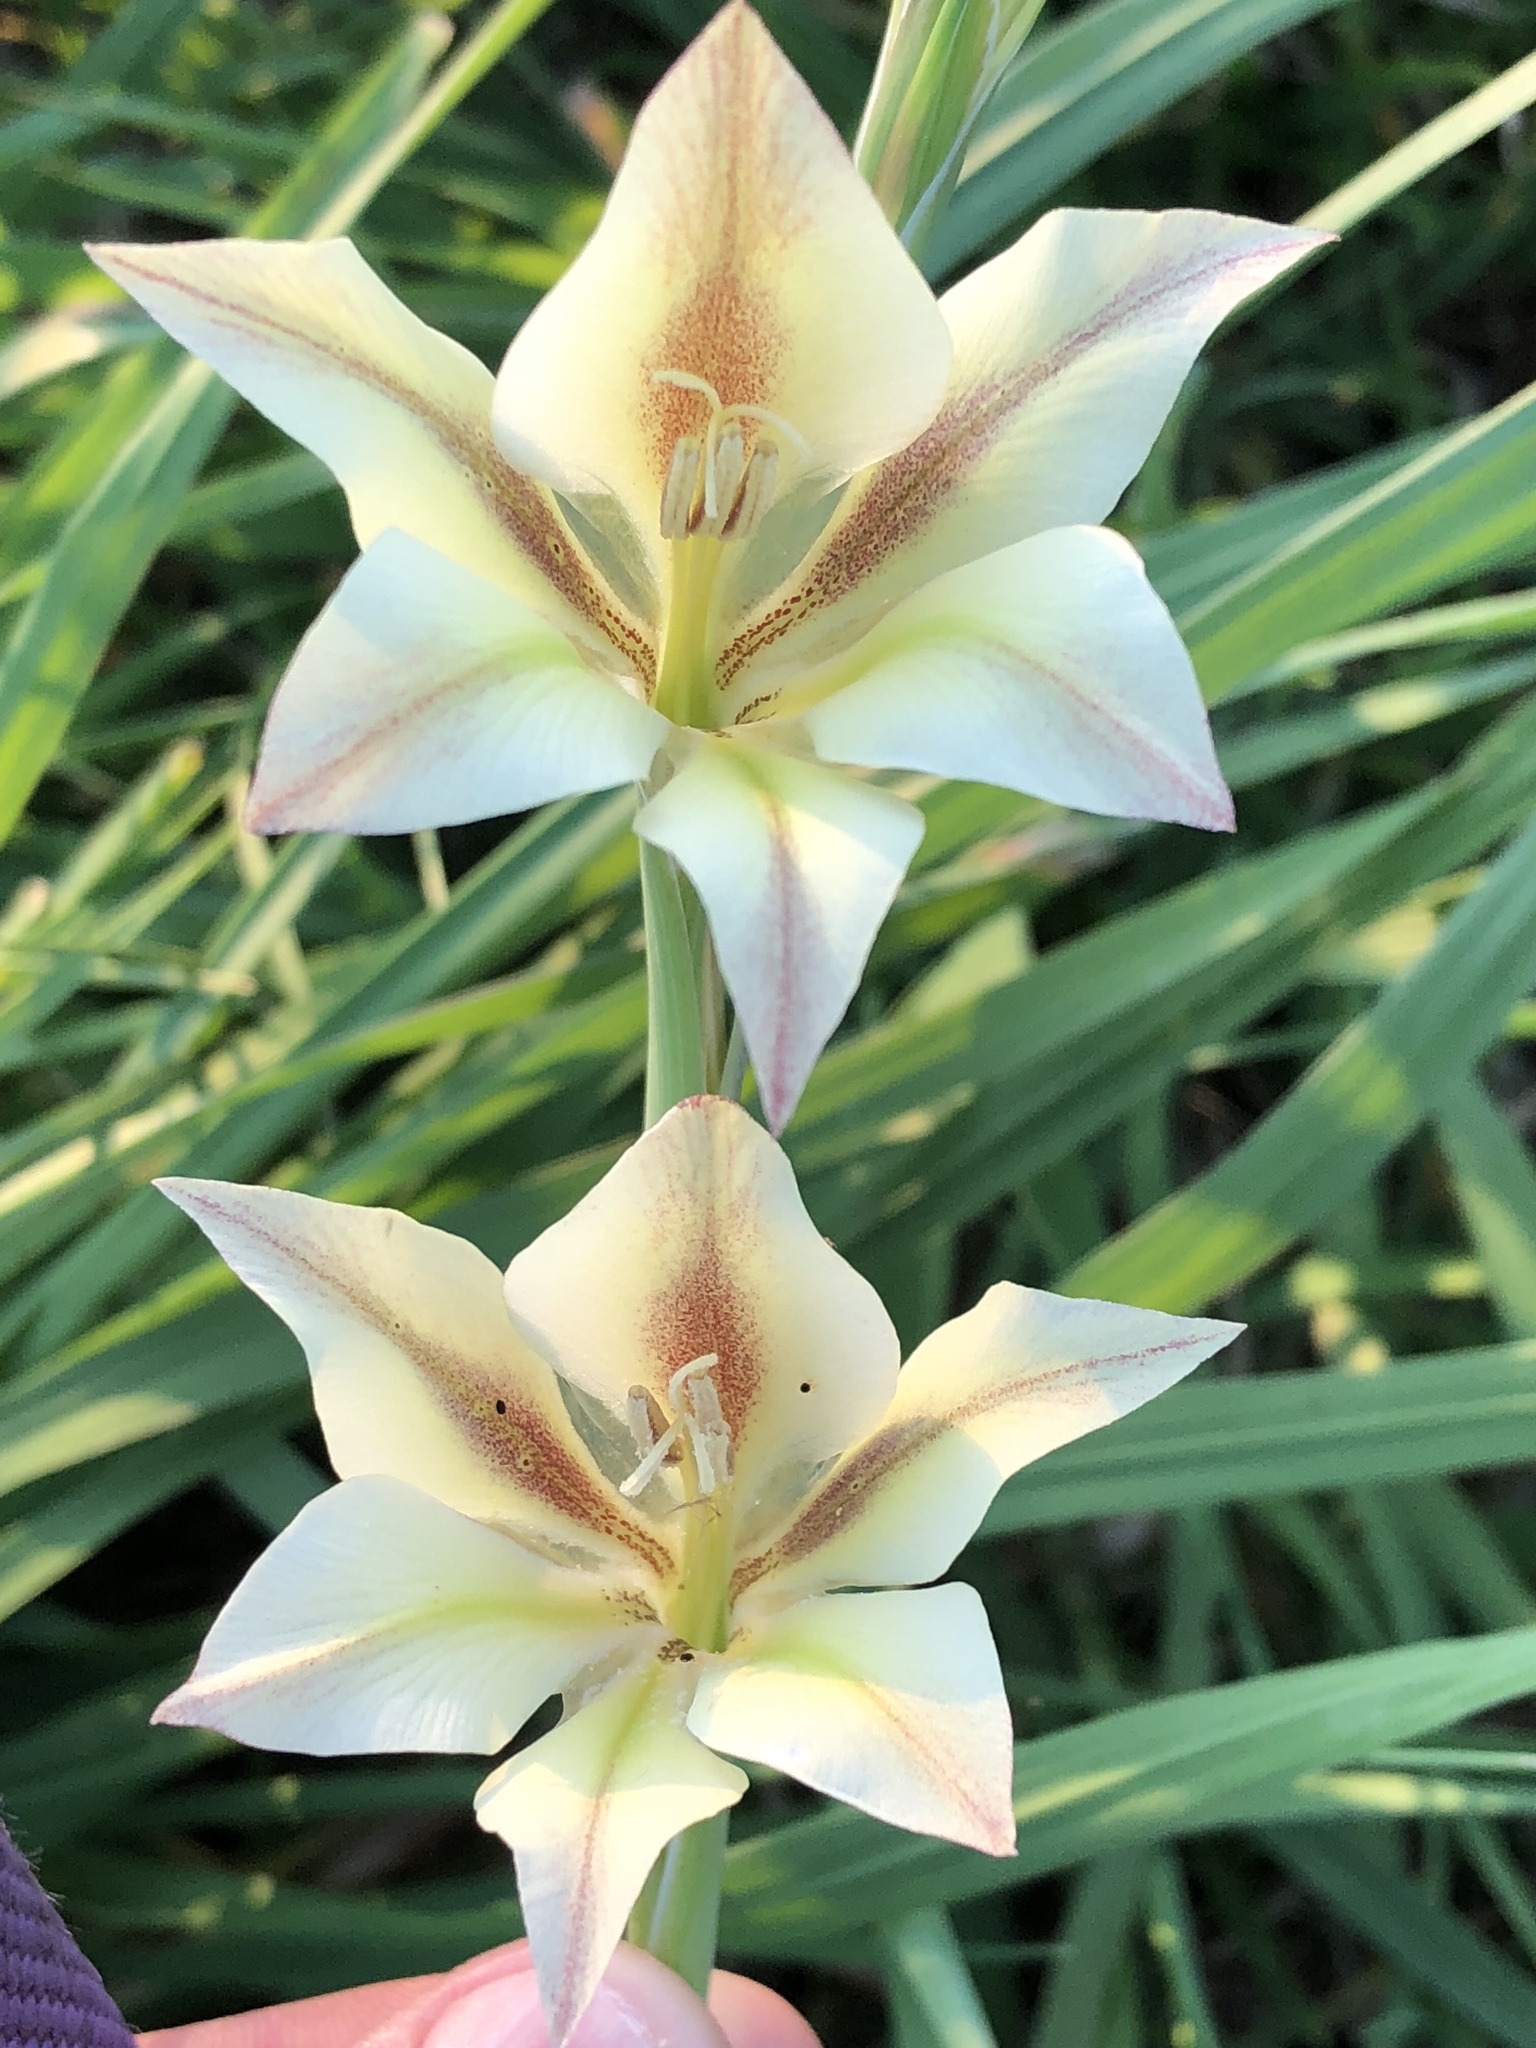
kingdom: Plantae
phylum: Tracheophyta
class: Liliopsida
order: Asparagales
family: Iridaceae
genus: Gladiolus
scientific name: Gladiolus tristis
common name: Ever-flowering gladiolus
